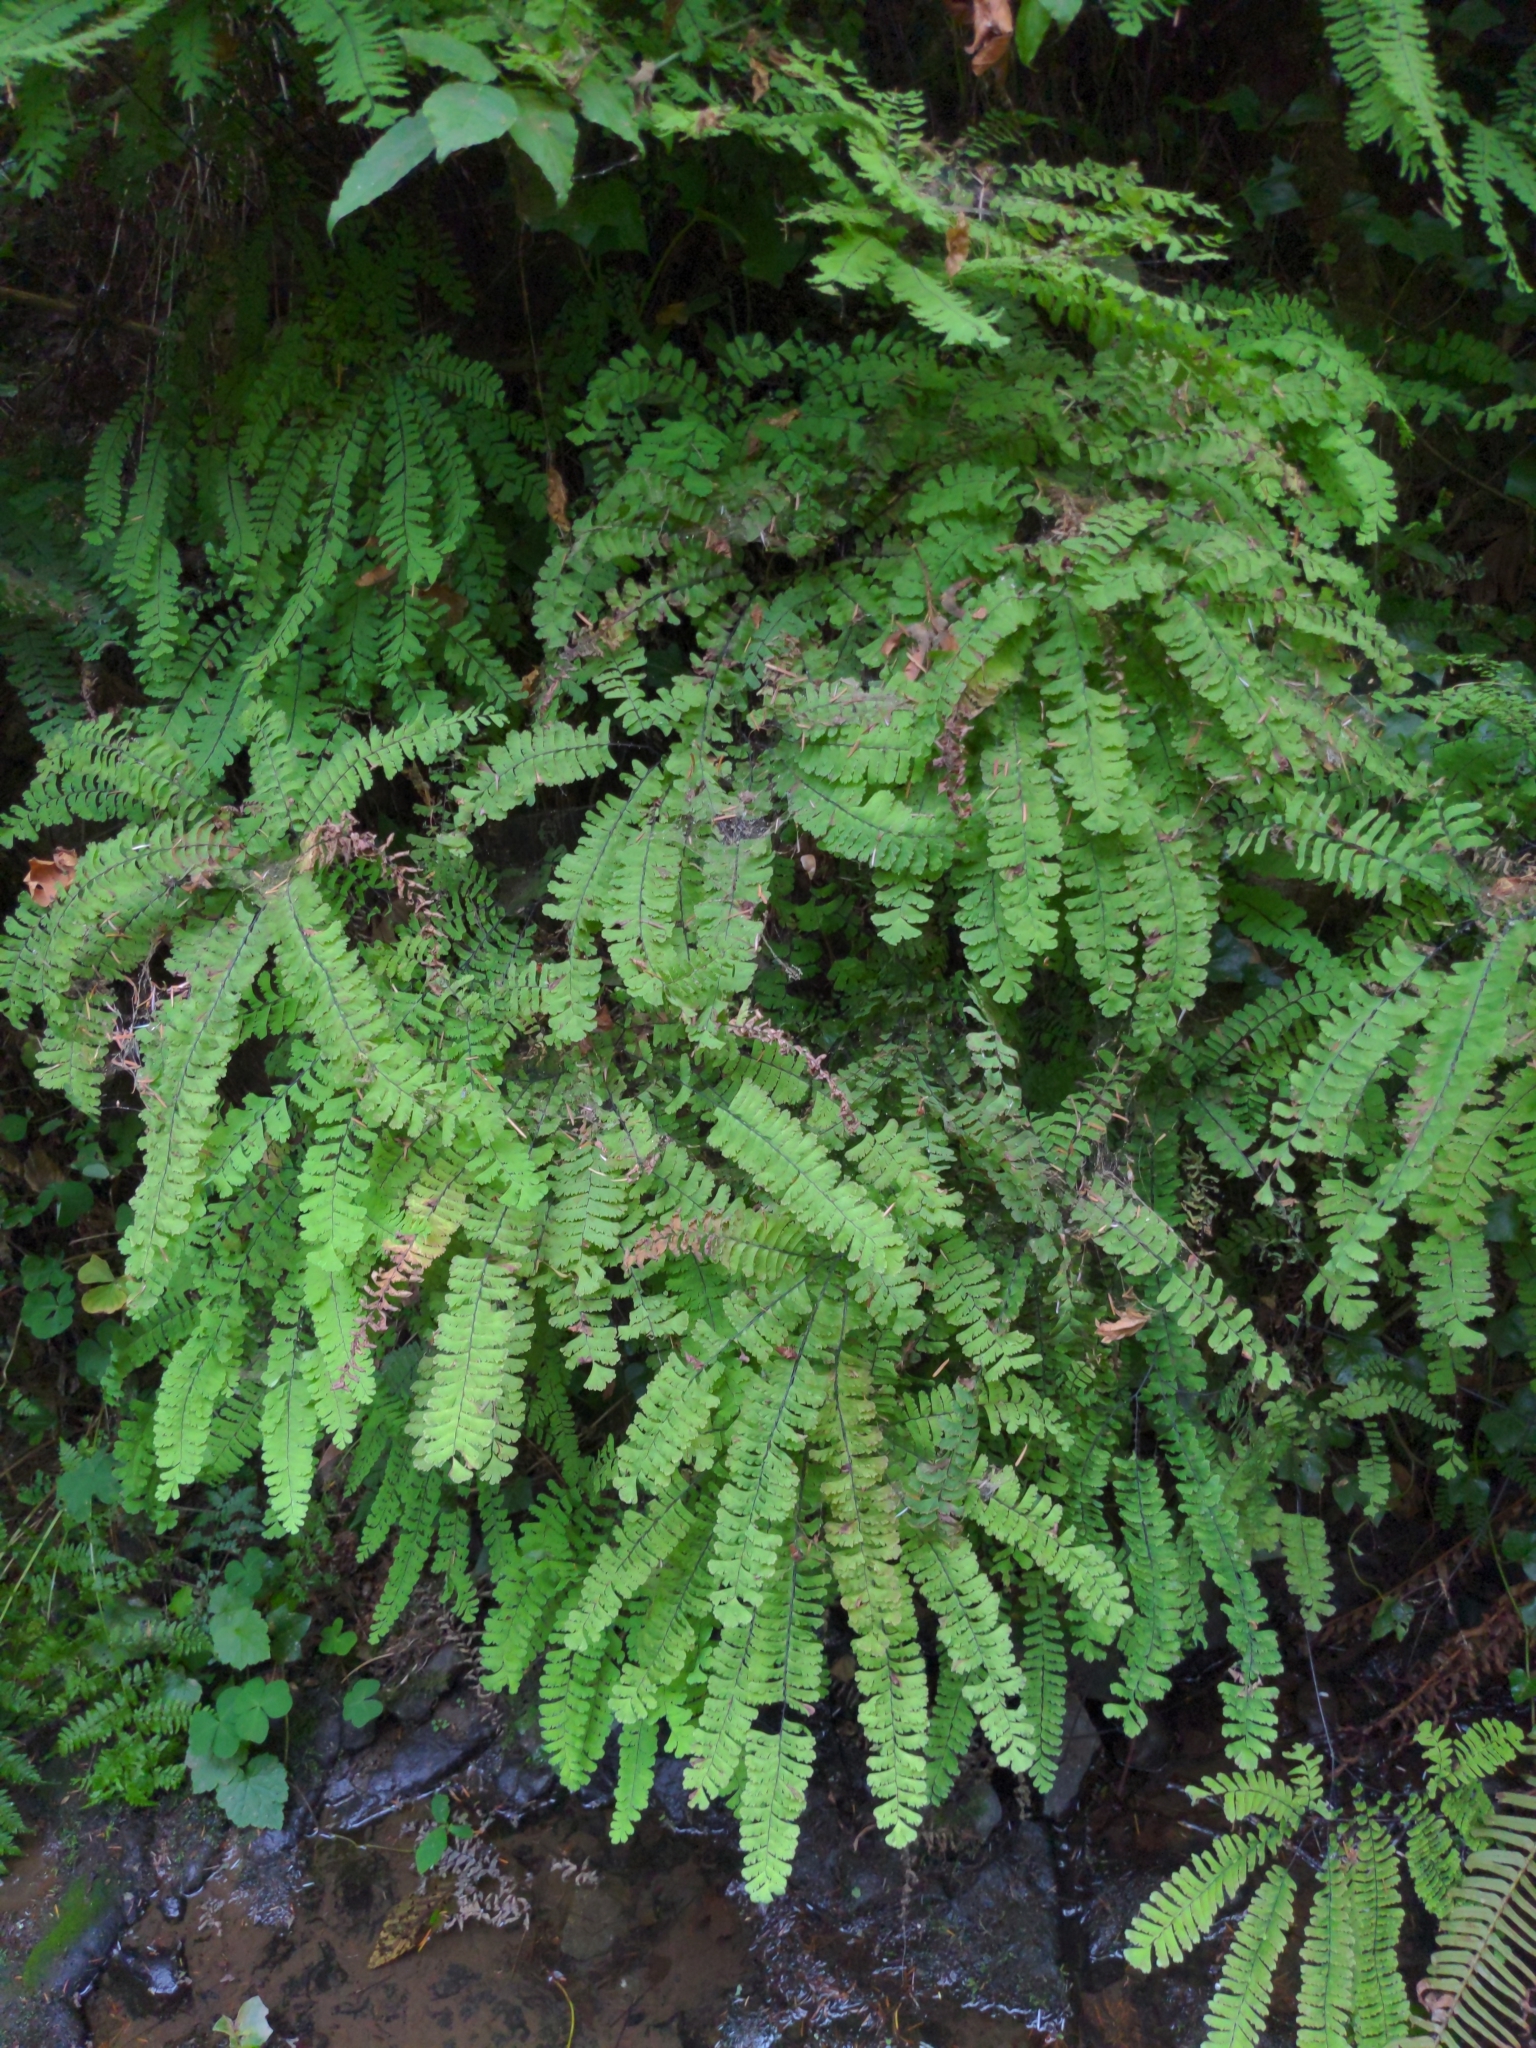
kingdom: Plantae
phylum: Tracheophyta
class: Polypodiopsida
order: Polypodiales
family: Pteridaceae
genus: Adiantum
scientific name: Adiantum aleuticum
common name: Aleutian maidenhair fern
